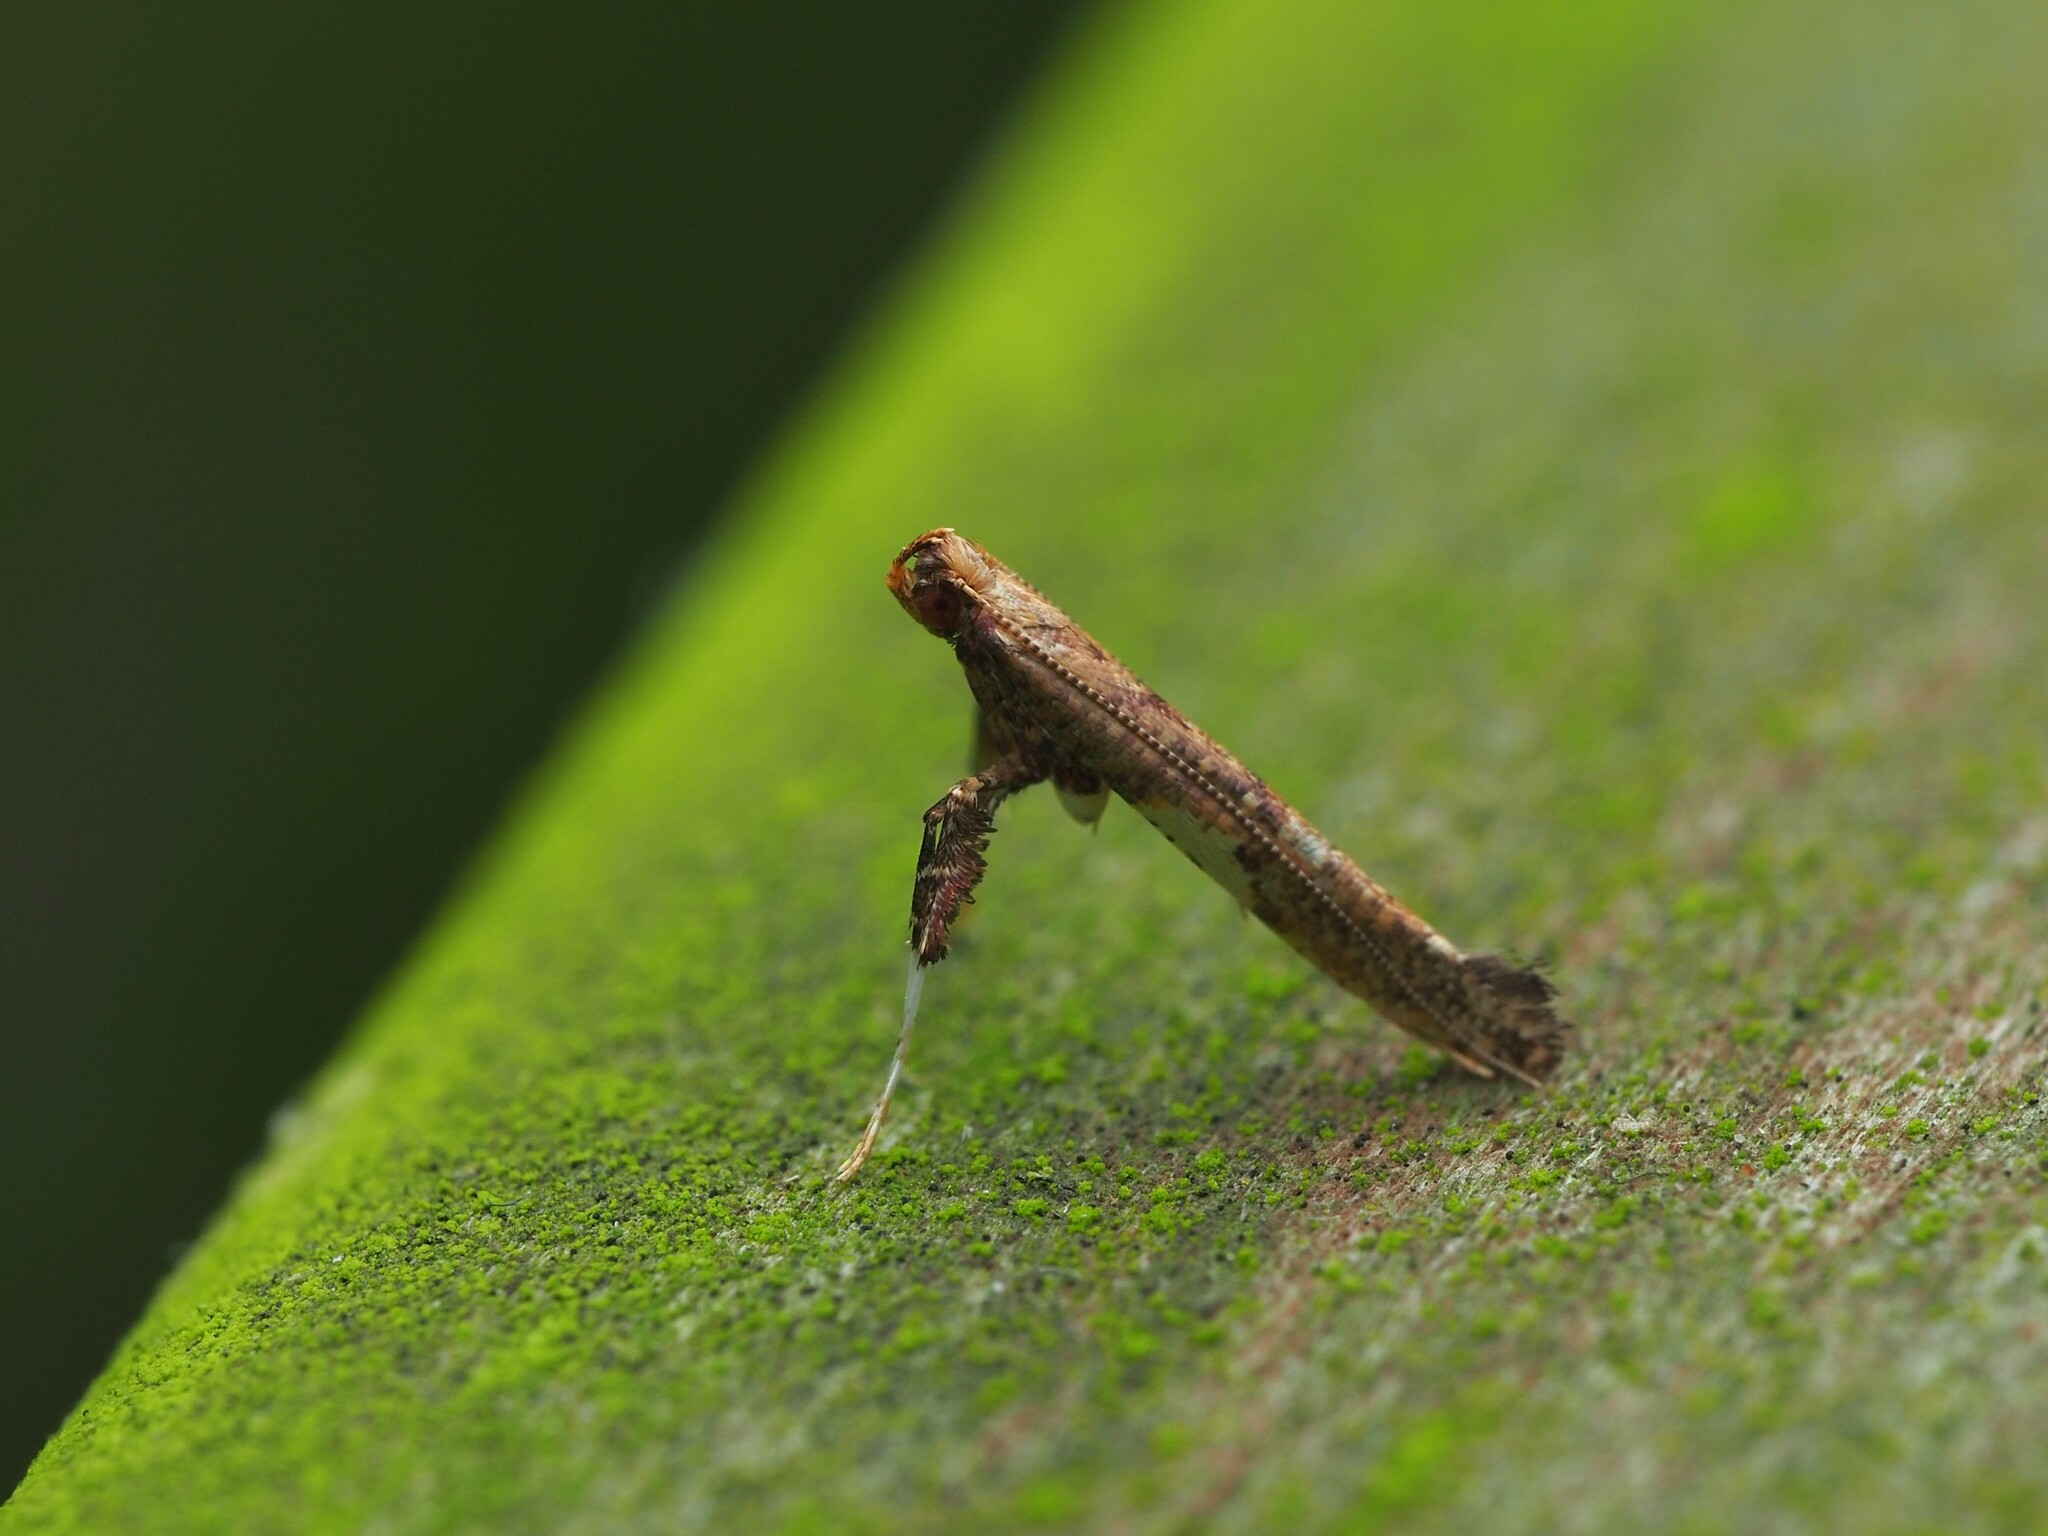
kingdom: Animalia
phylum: Arthropoda
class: Insecta
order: Lepidoptera
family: Gracillariidae
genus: Caloptilia
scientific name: Caloptilia chalcodelta
